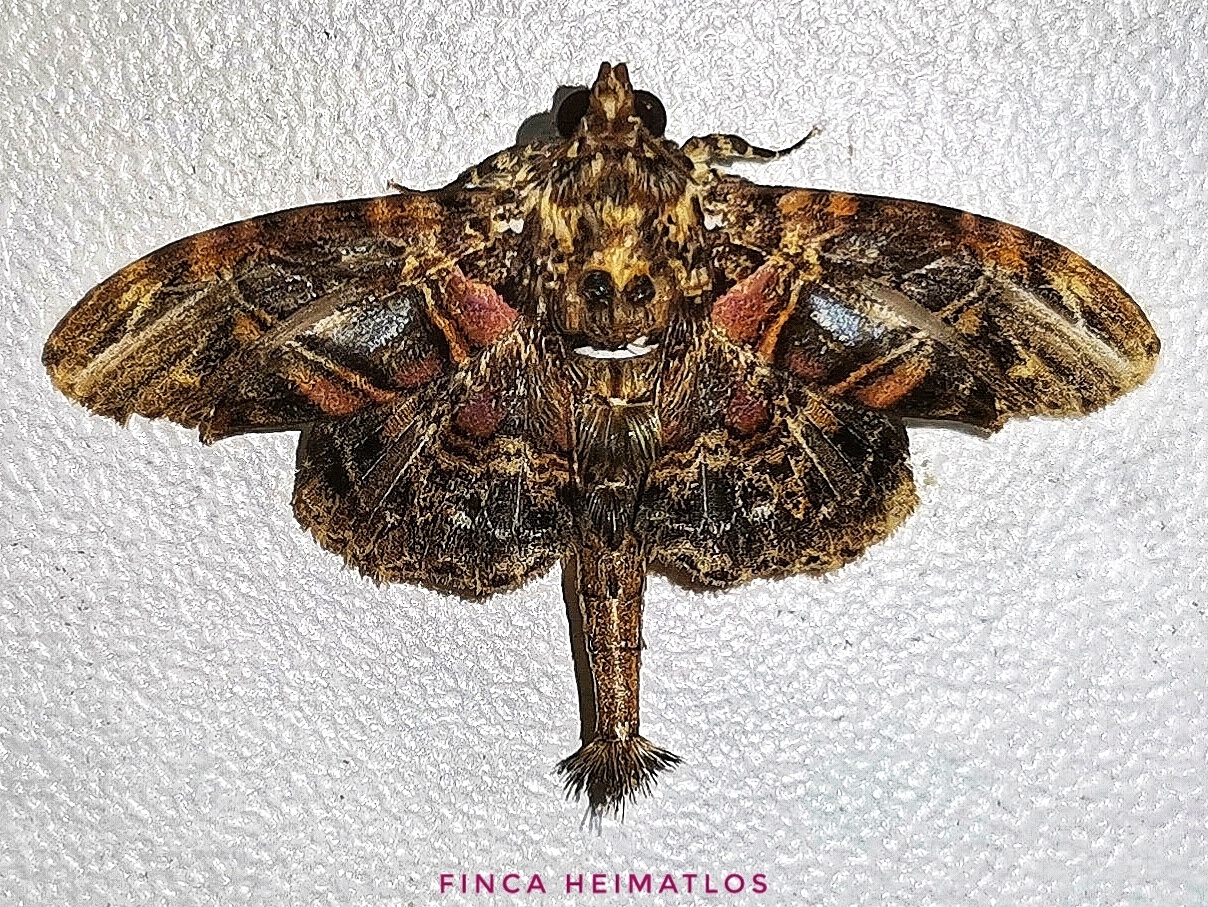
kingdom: Animalia
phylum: Arthropoda
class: Insecta
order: Lepidoptera
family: Erebidae
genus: Dolichosomastis
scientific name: Dolichosomastis hermieri
